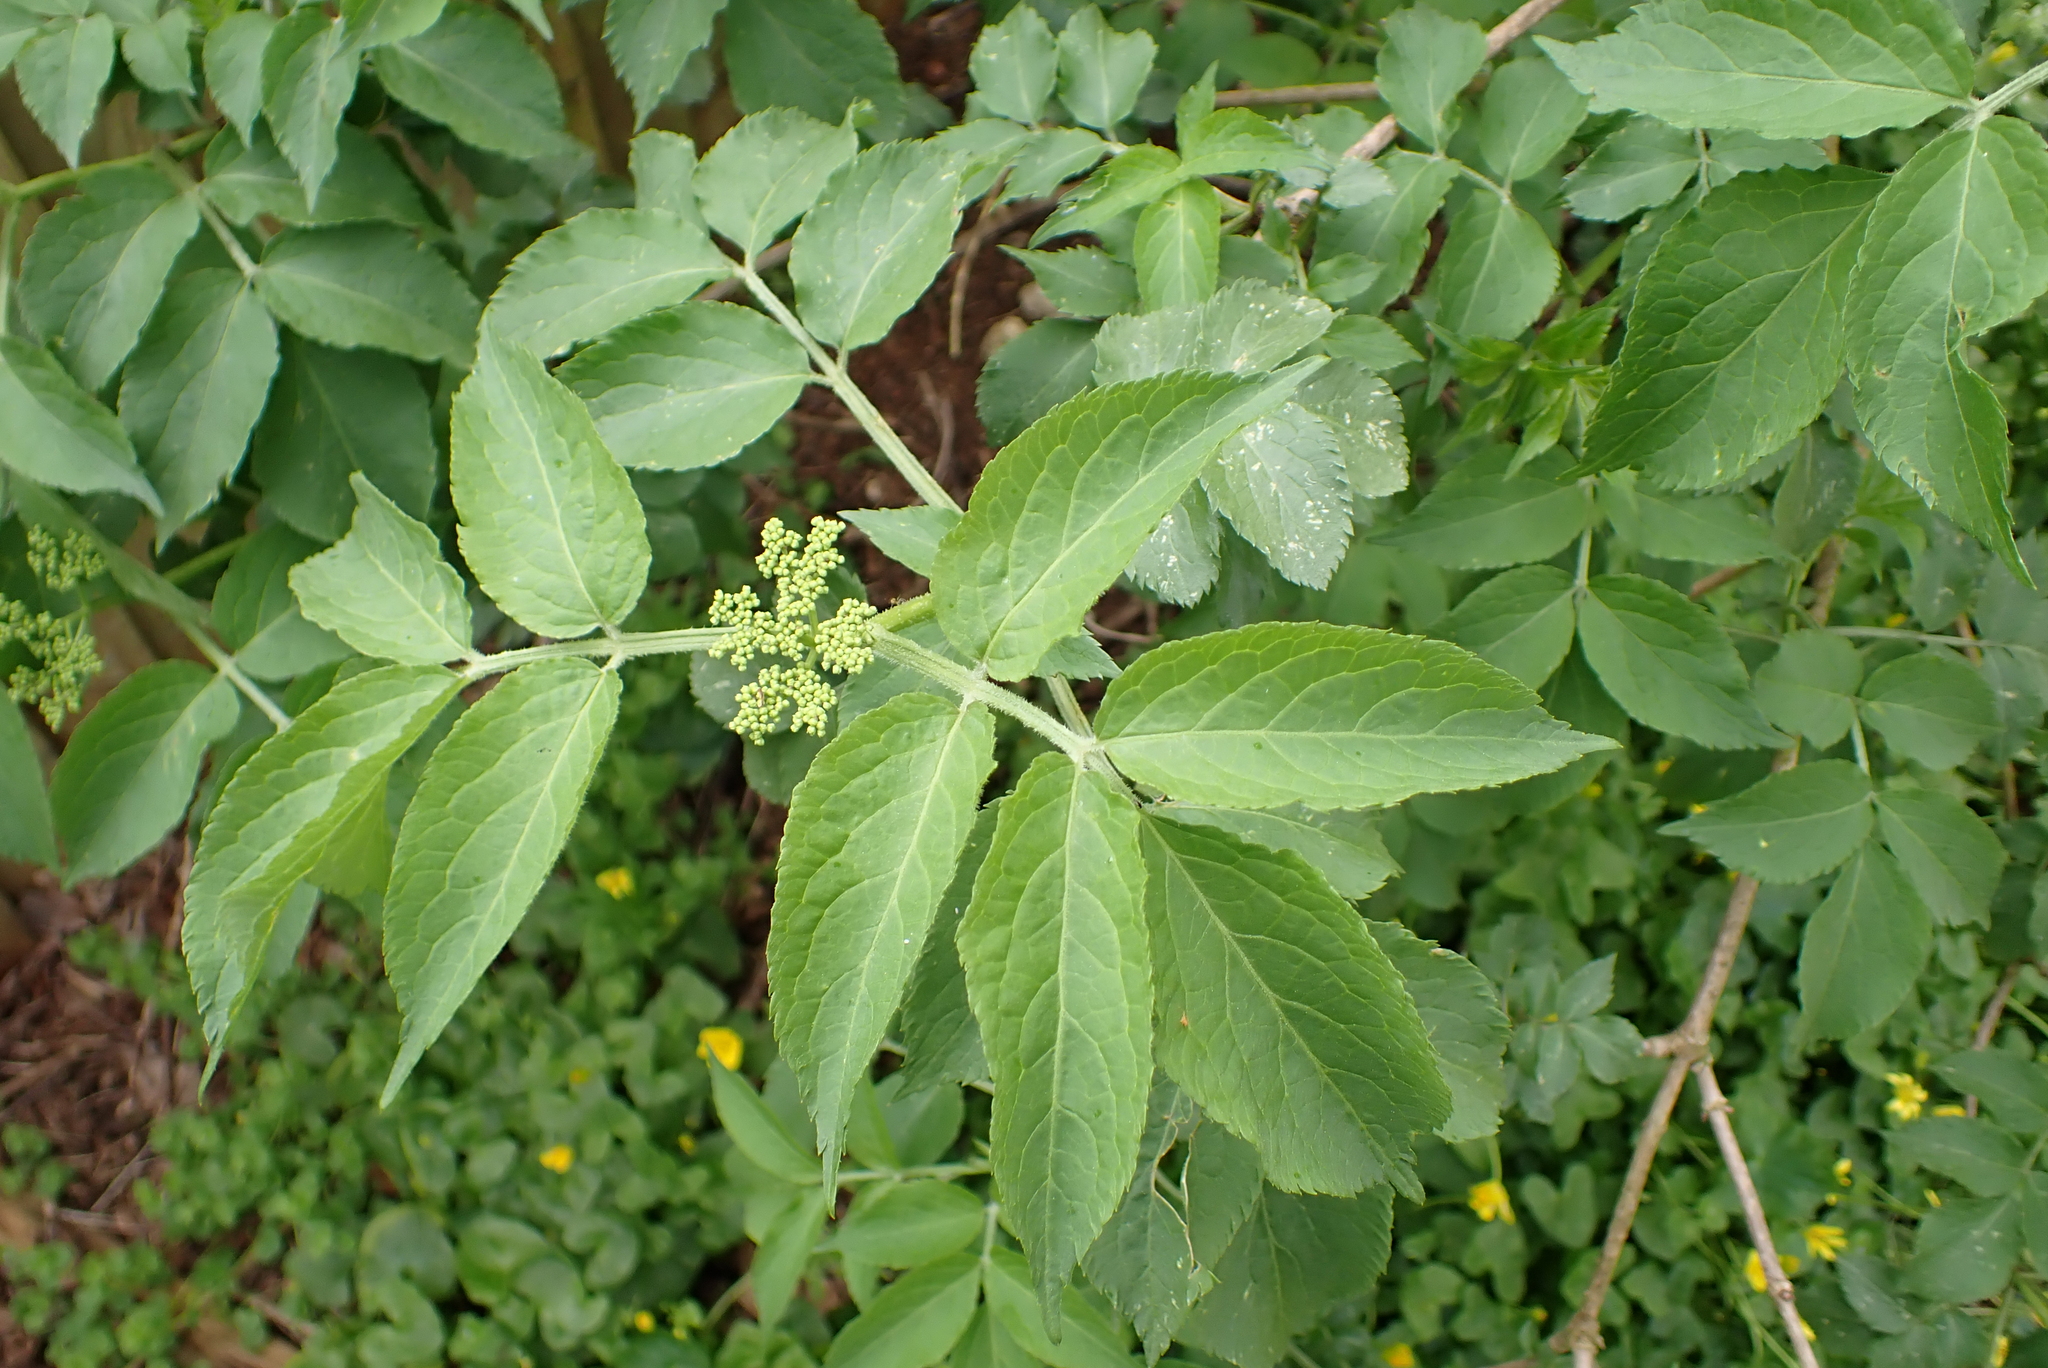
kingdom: Plantae
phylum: Tracheophyta
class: Magnoliopsida
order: Dipsacales
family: Viburnaceae
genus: Sambucus
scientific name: Sambucus nigra
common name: Elder
